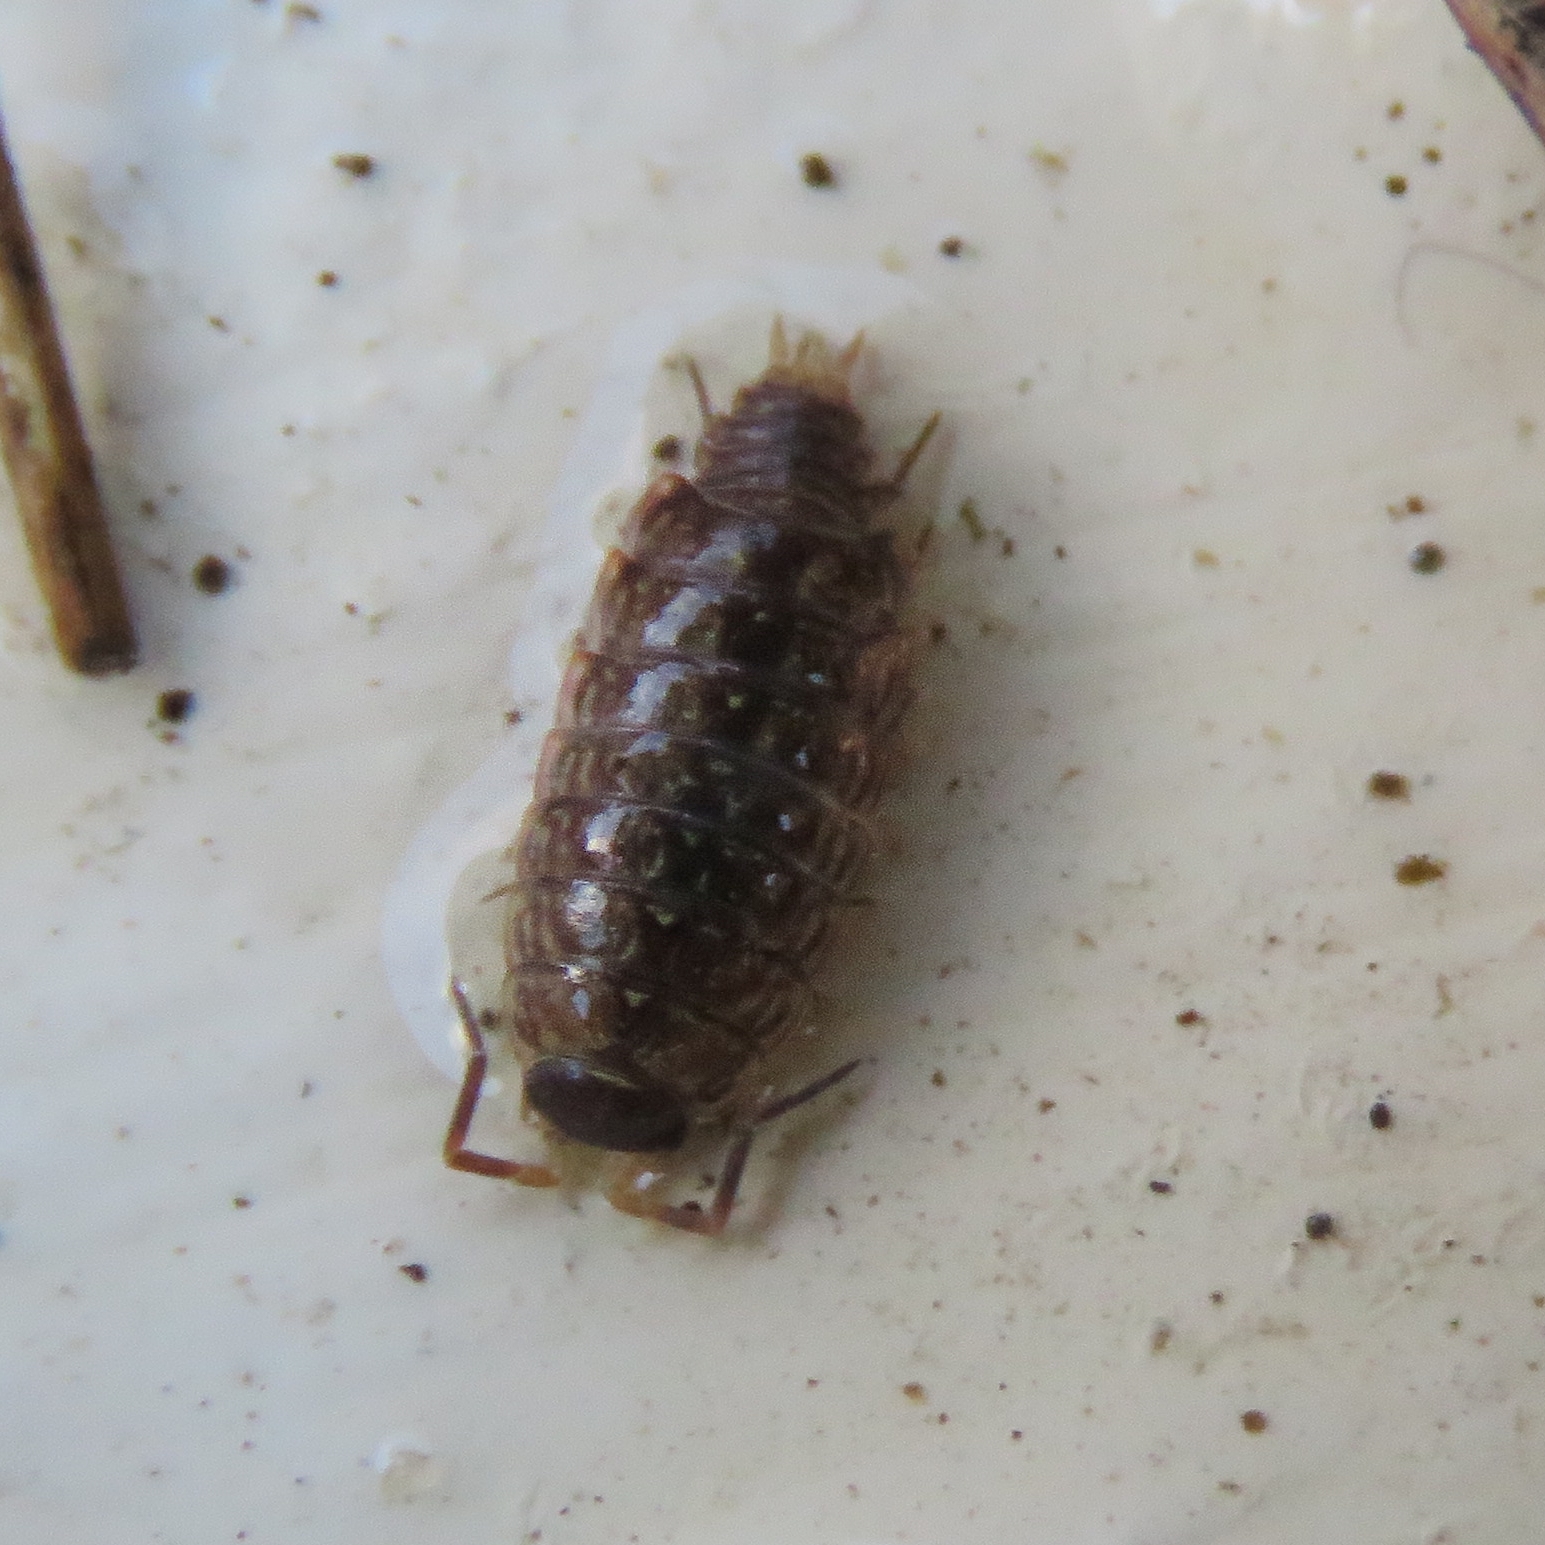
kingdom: Animalia
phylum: Arthropoda
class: Malacostraca
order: Isopoda
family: Philosciidae
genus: Philoscia
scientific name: Philoscia muscorum
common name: Common striped woodlouse
